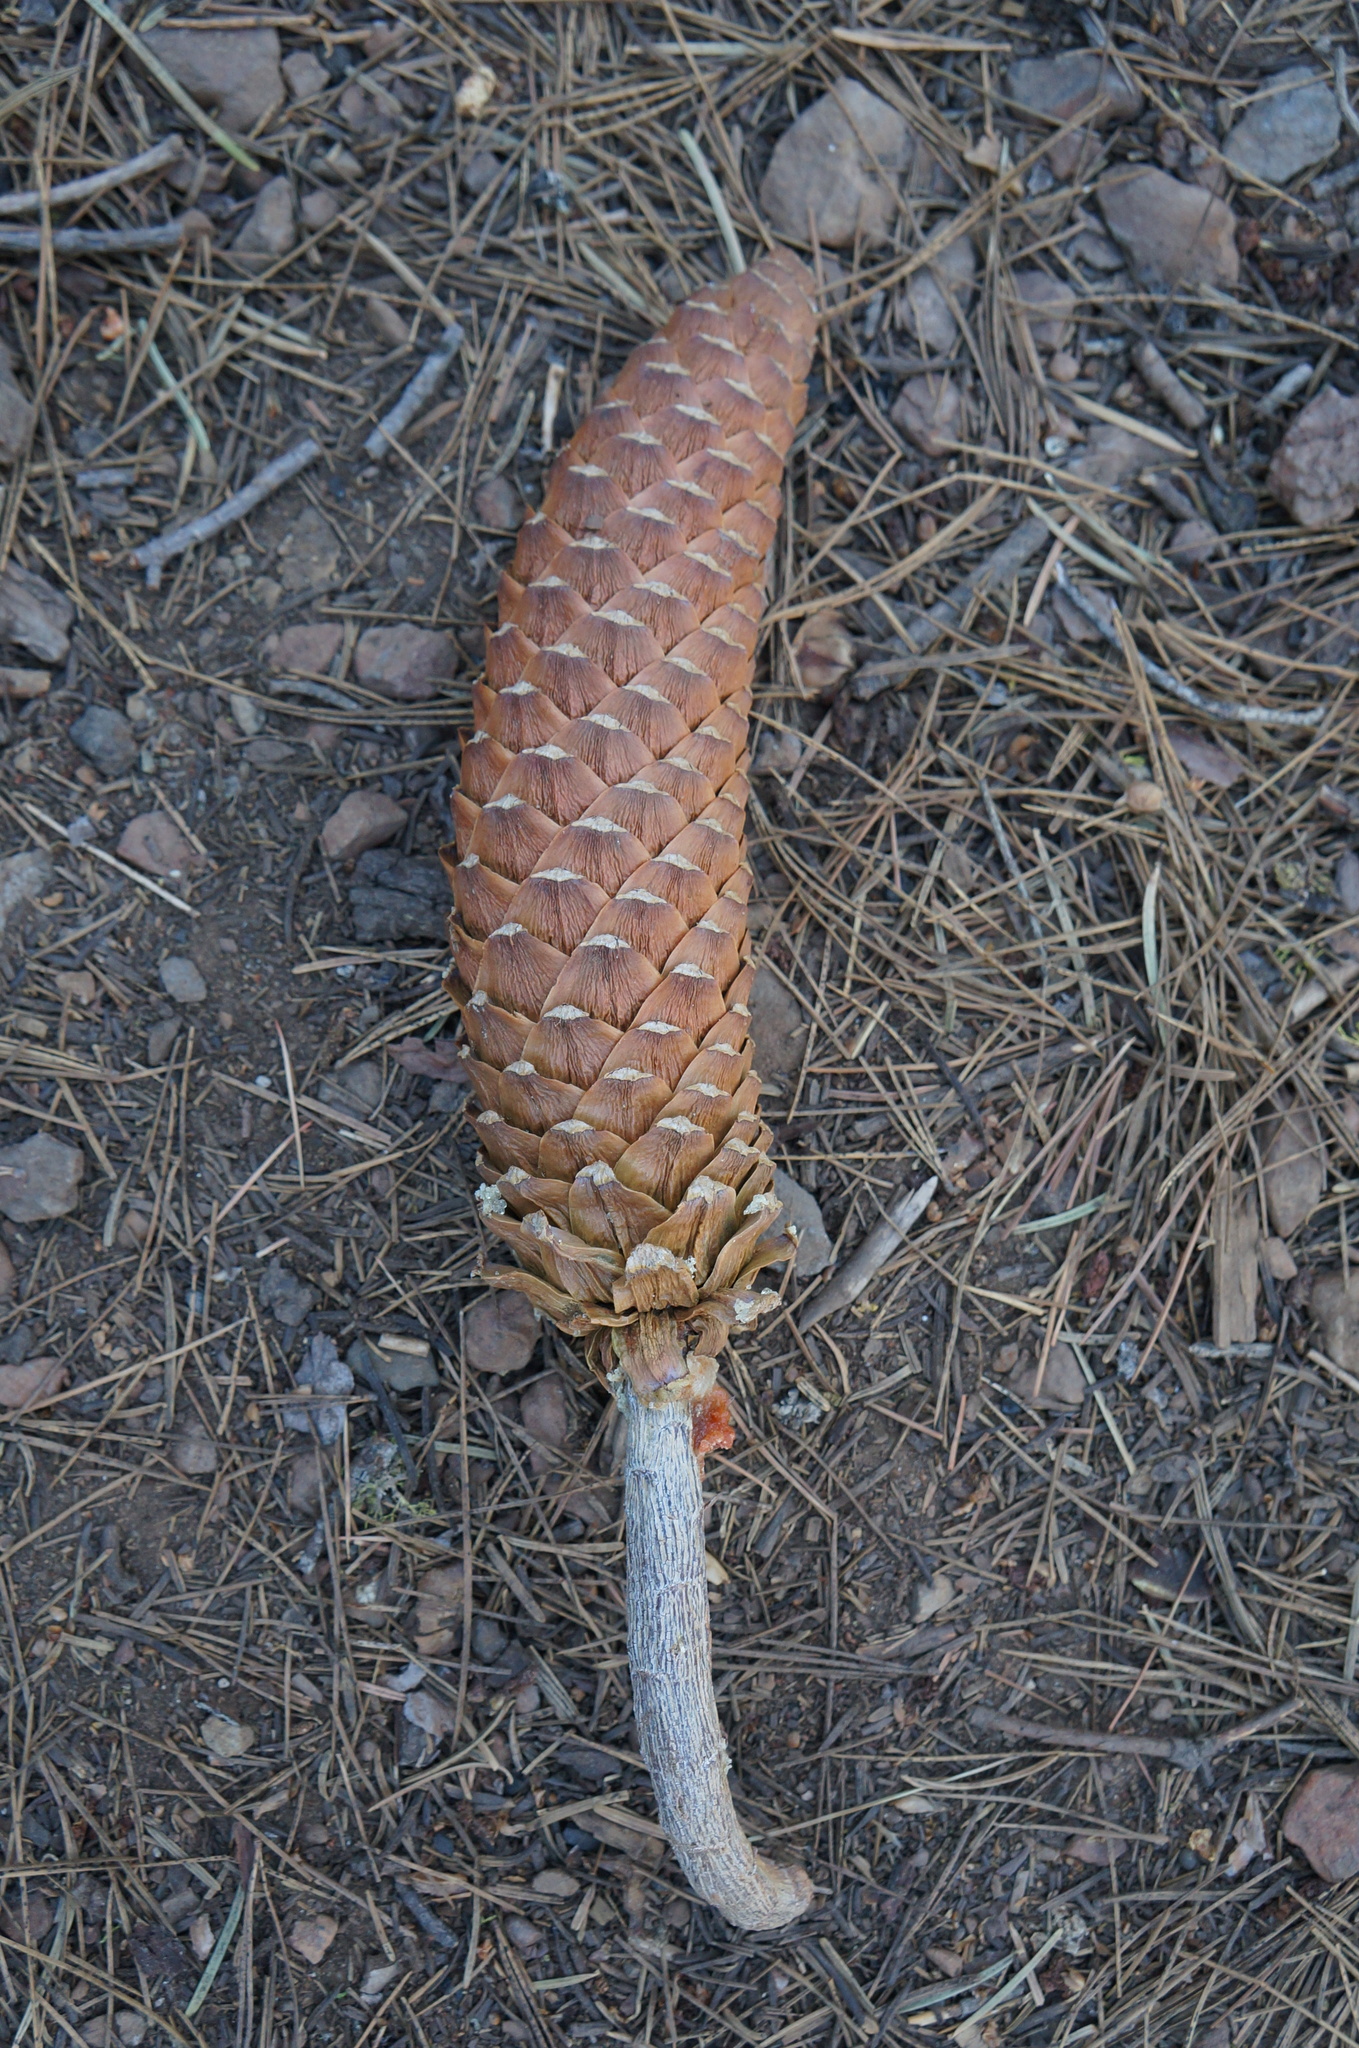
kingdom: Plantae
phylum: Tracheophyta
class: Pinopsida
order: Pinales
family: Pinaceae
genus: Pinus
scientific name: Pinus lambertiana
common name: Sugar pine
